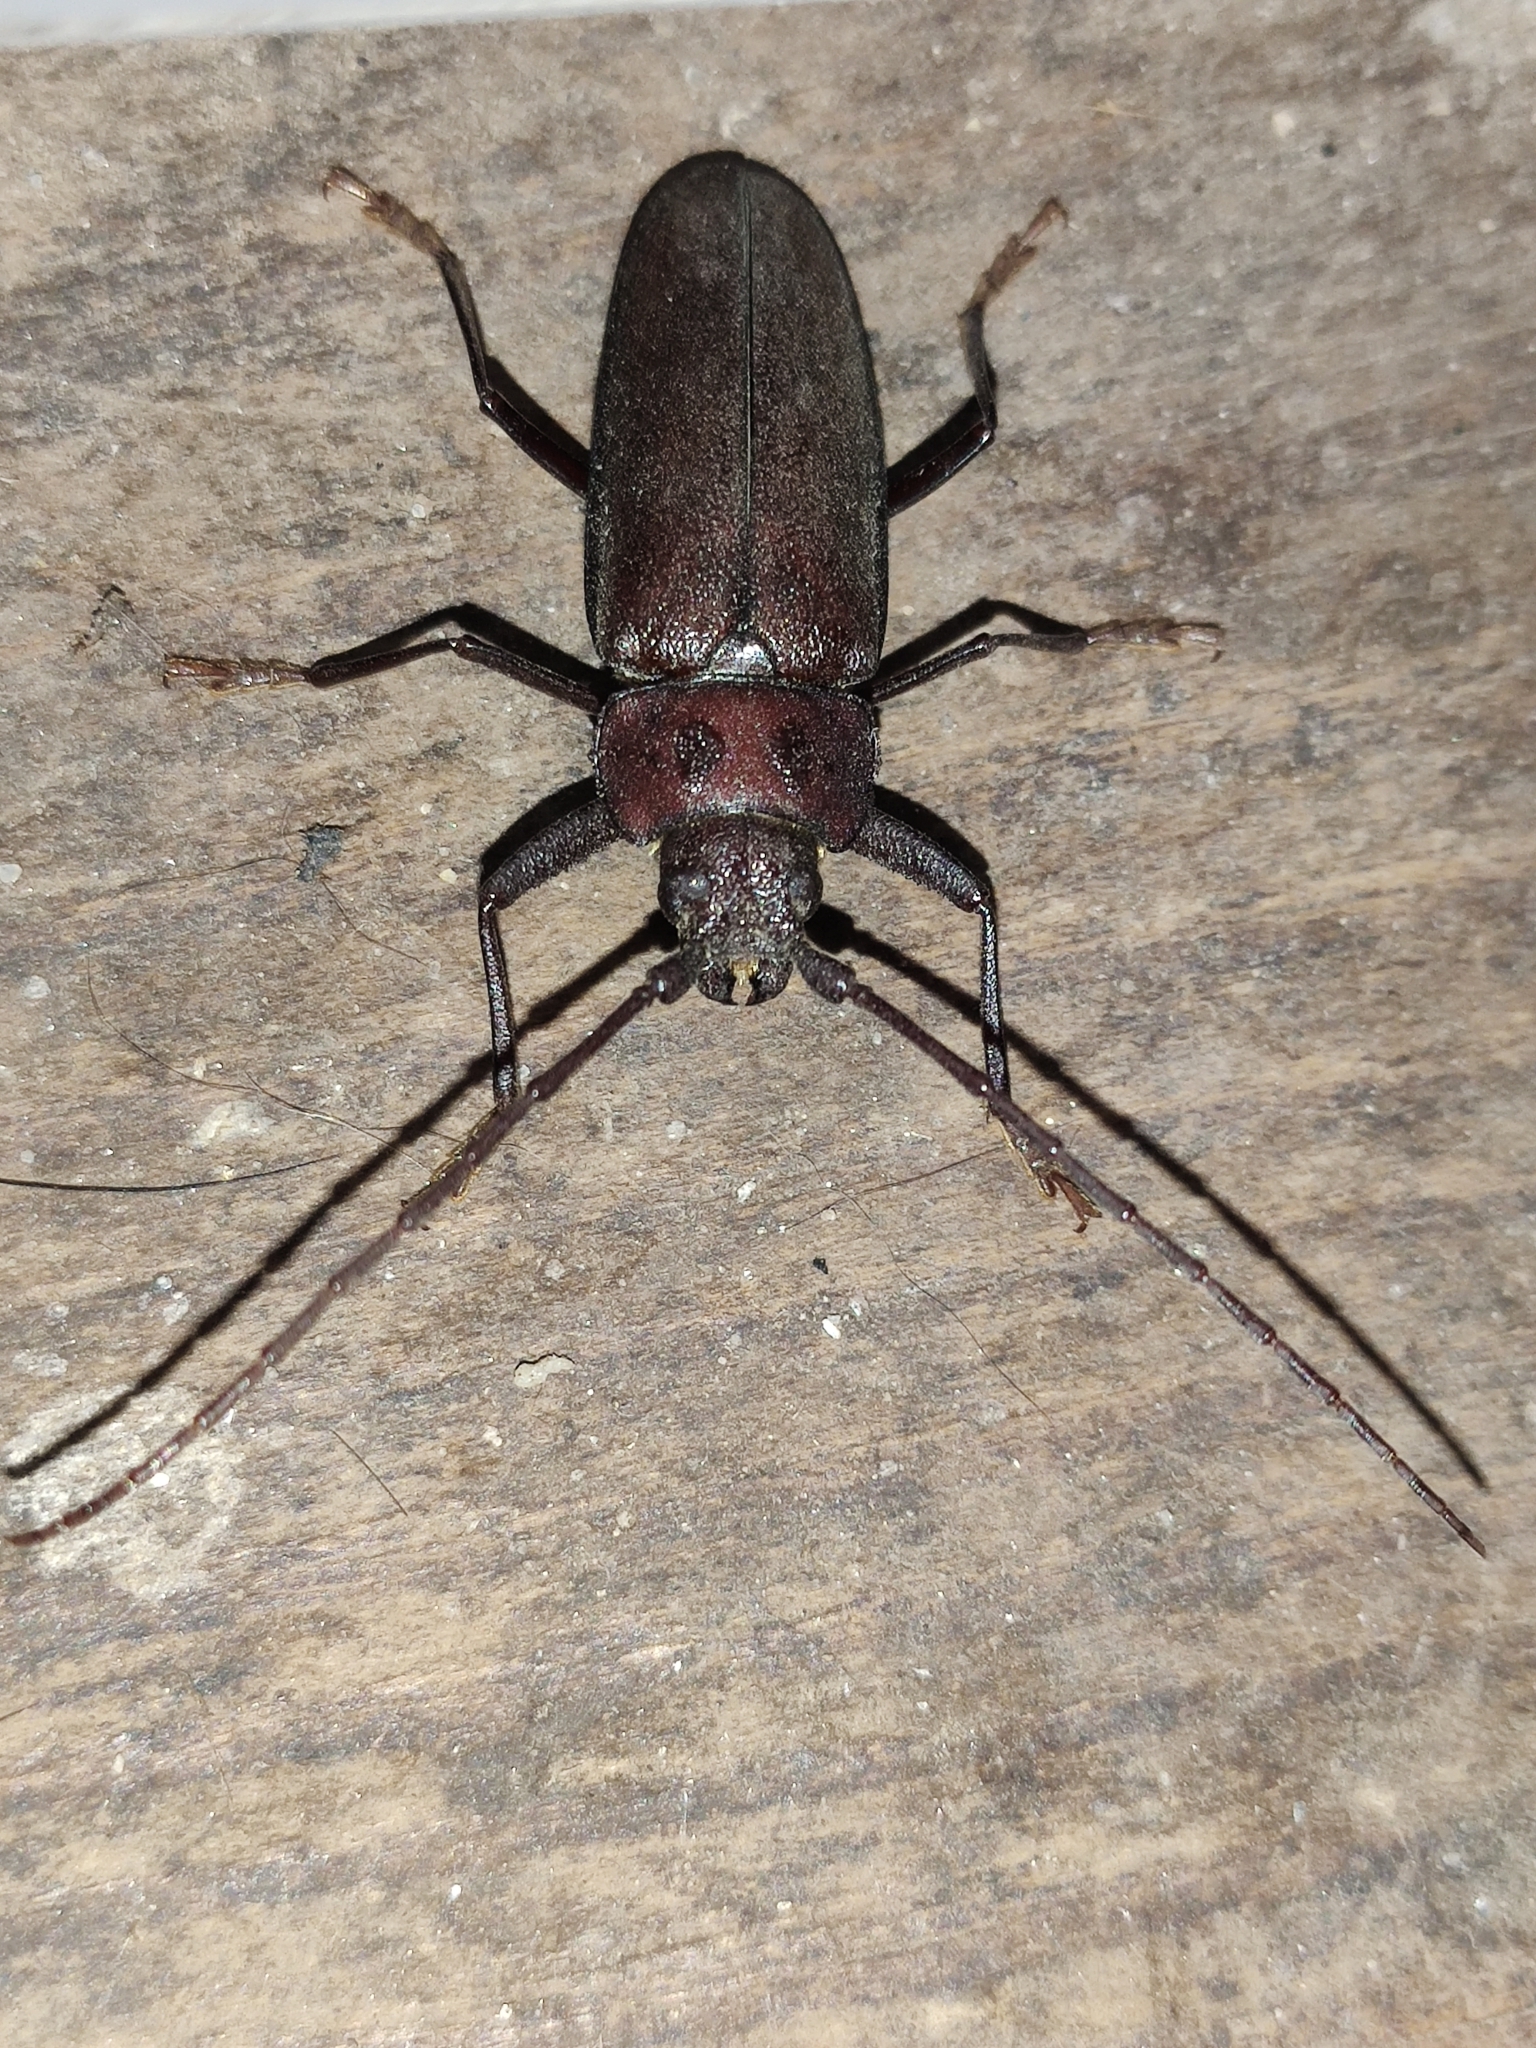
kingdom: Animalia
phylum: Arthropoda
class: Insecta
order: Coleoptera
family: Cerambycidae
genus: Ergates
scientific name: Ergates faber
